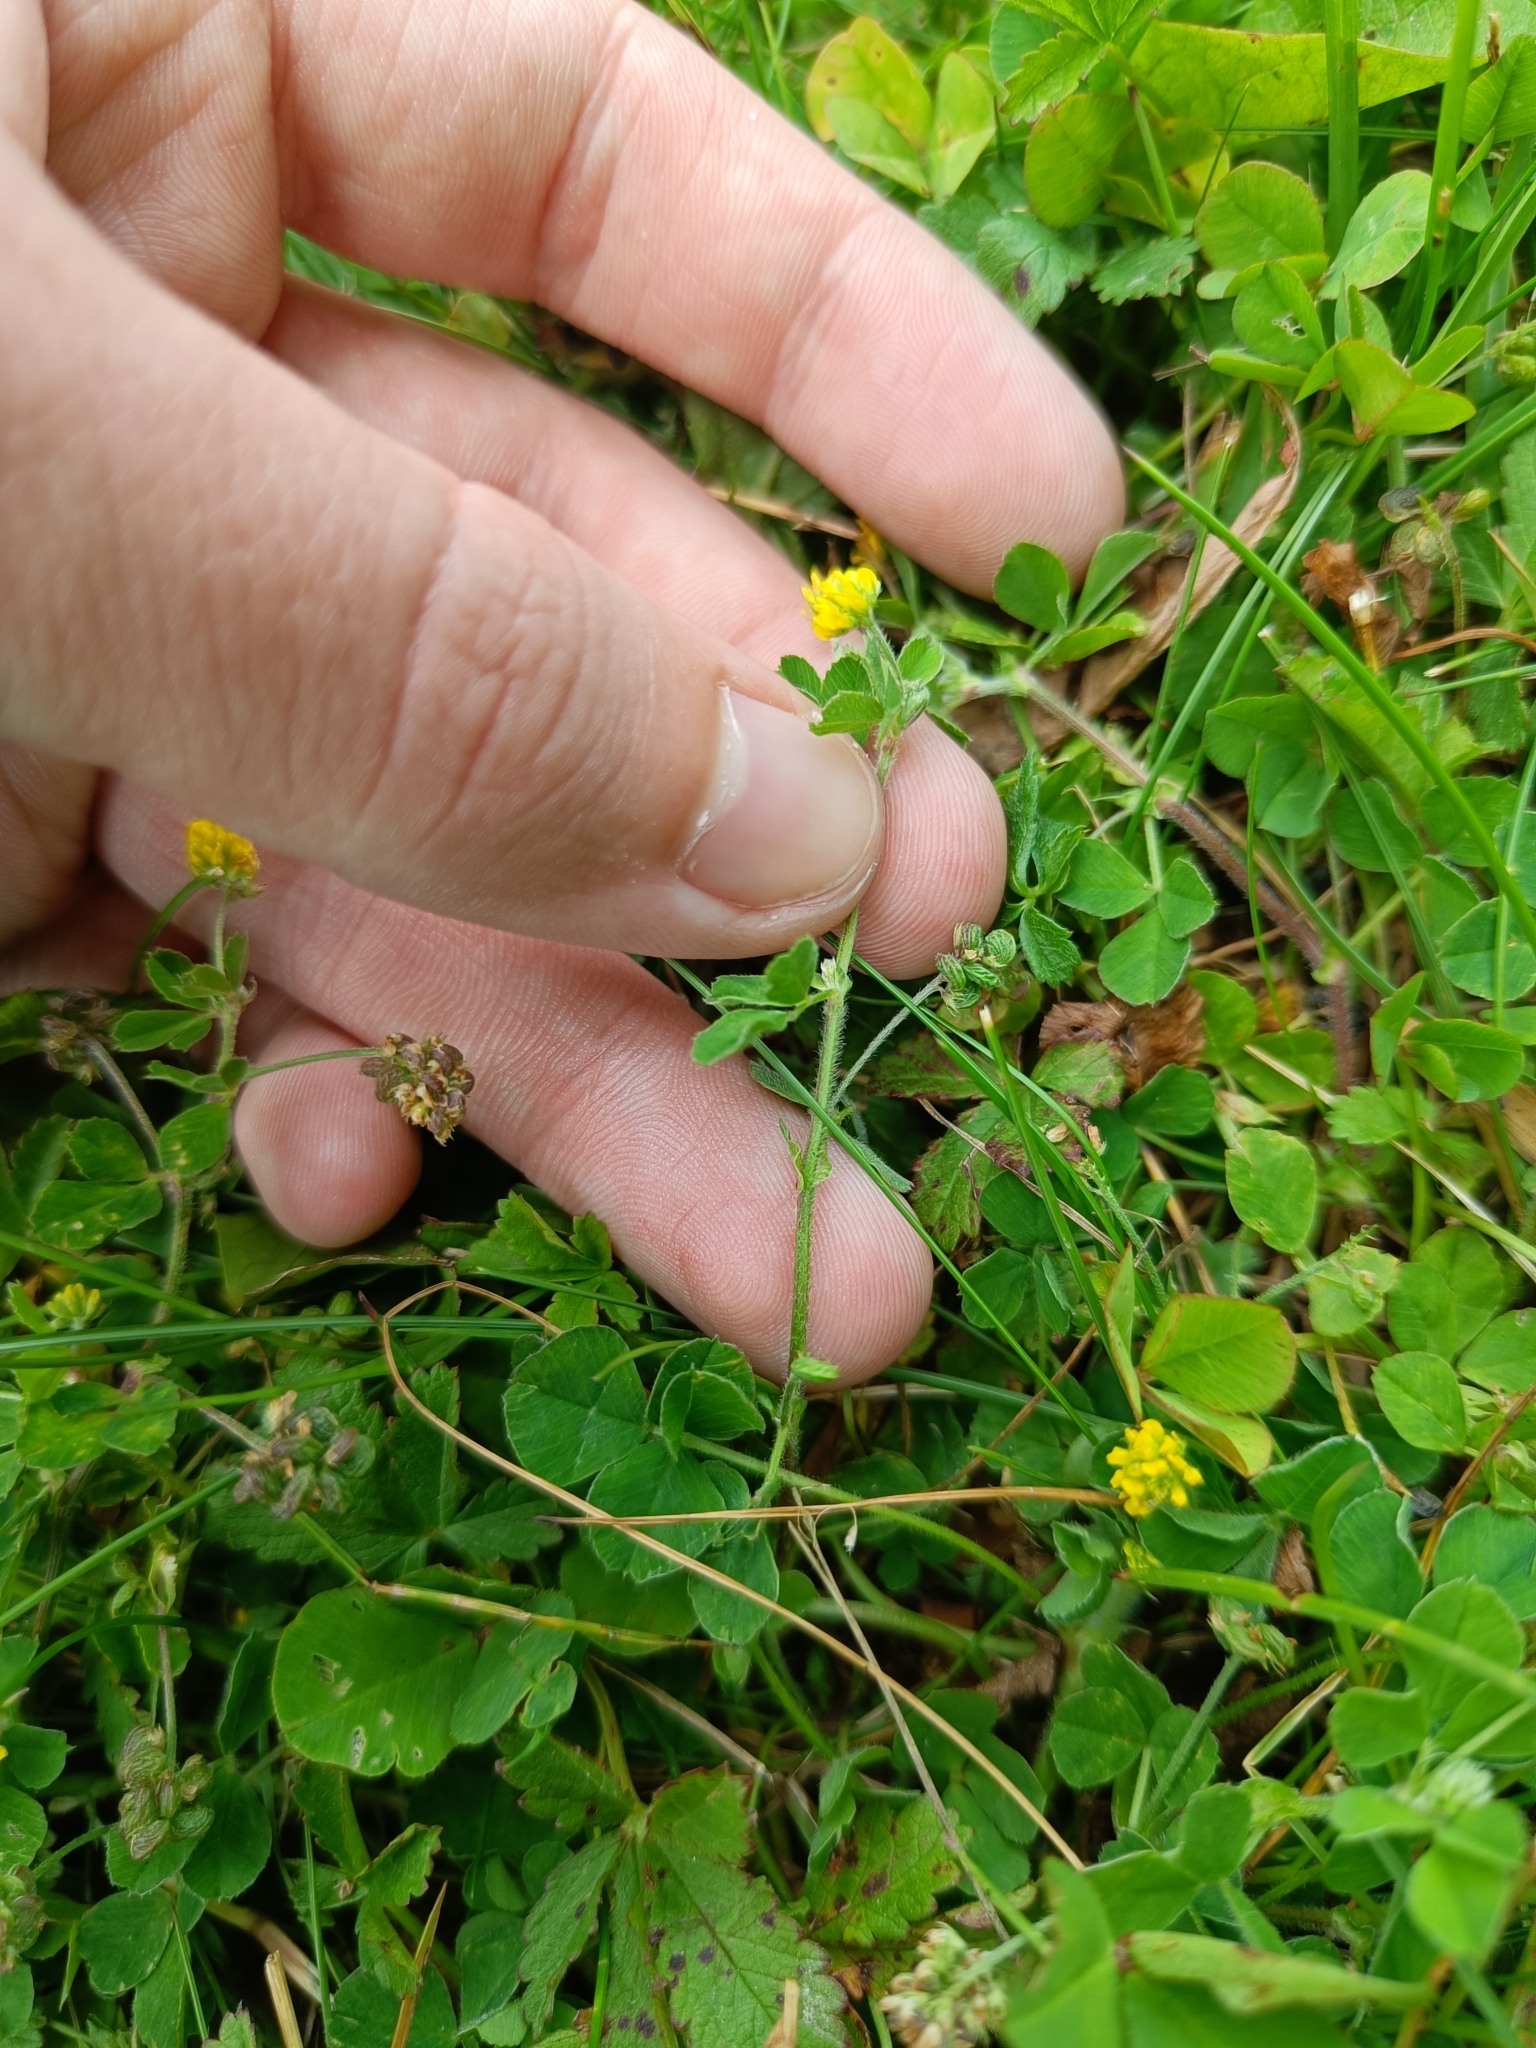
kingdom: Plantae
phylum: Tracheophyta
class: Magnoliopsida
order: Fabales
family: Fabaceae
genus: Medicago
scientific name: Medicago lupulina
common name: Black medick
